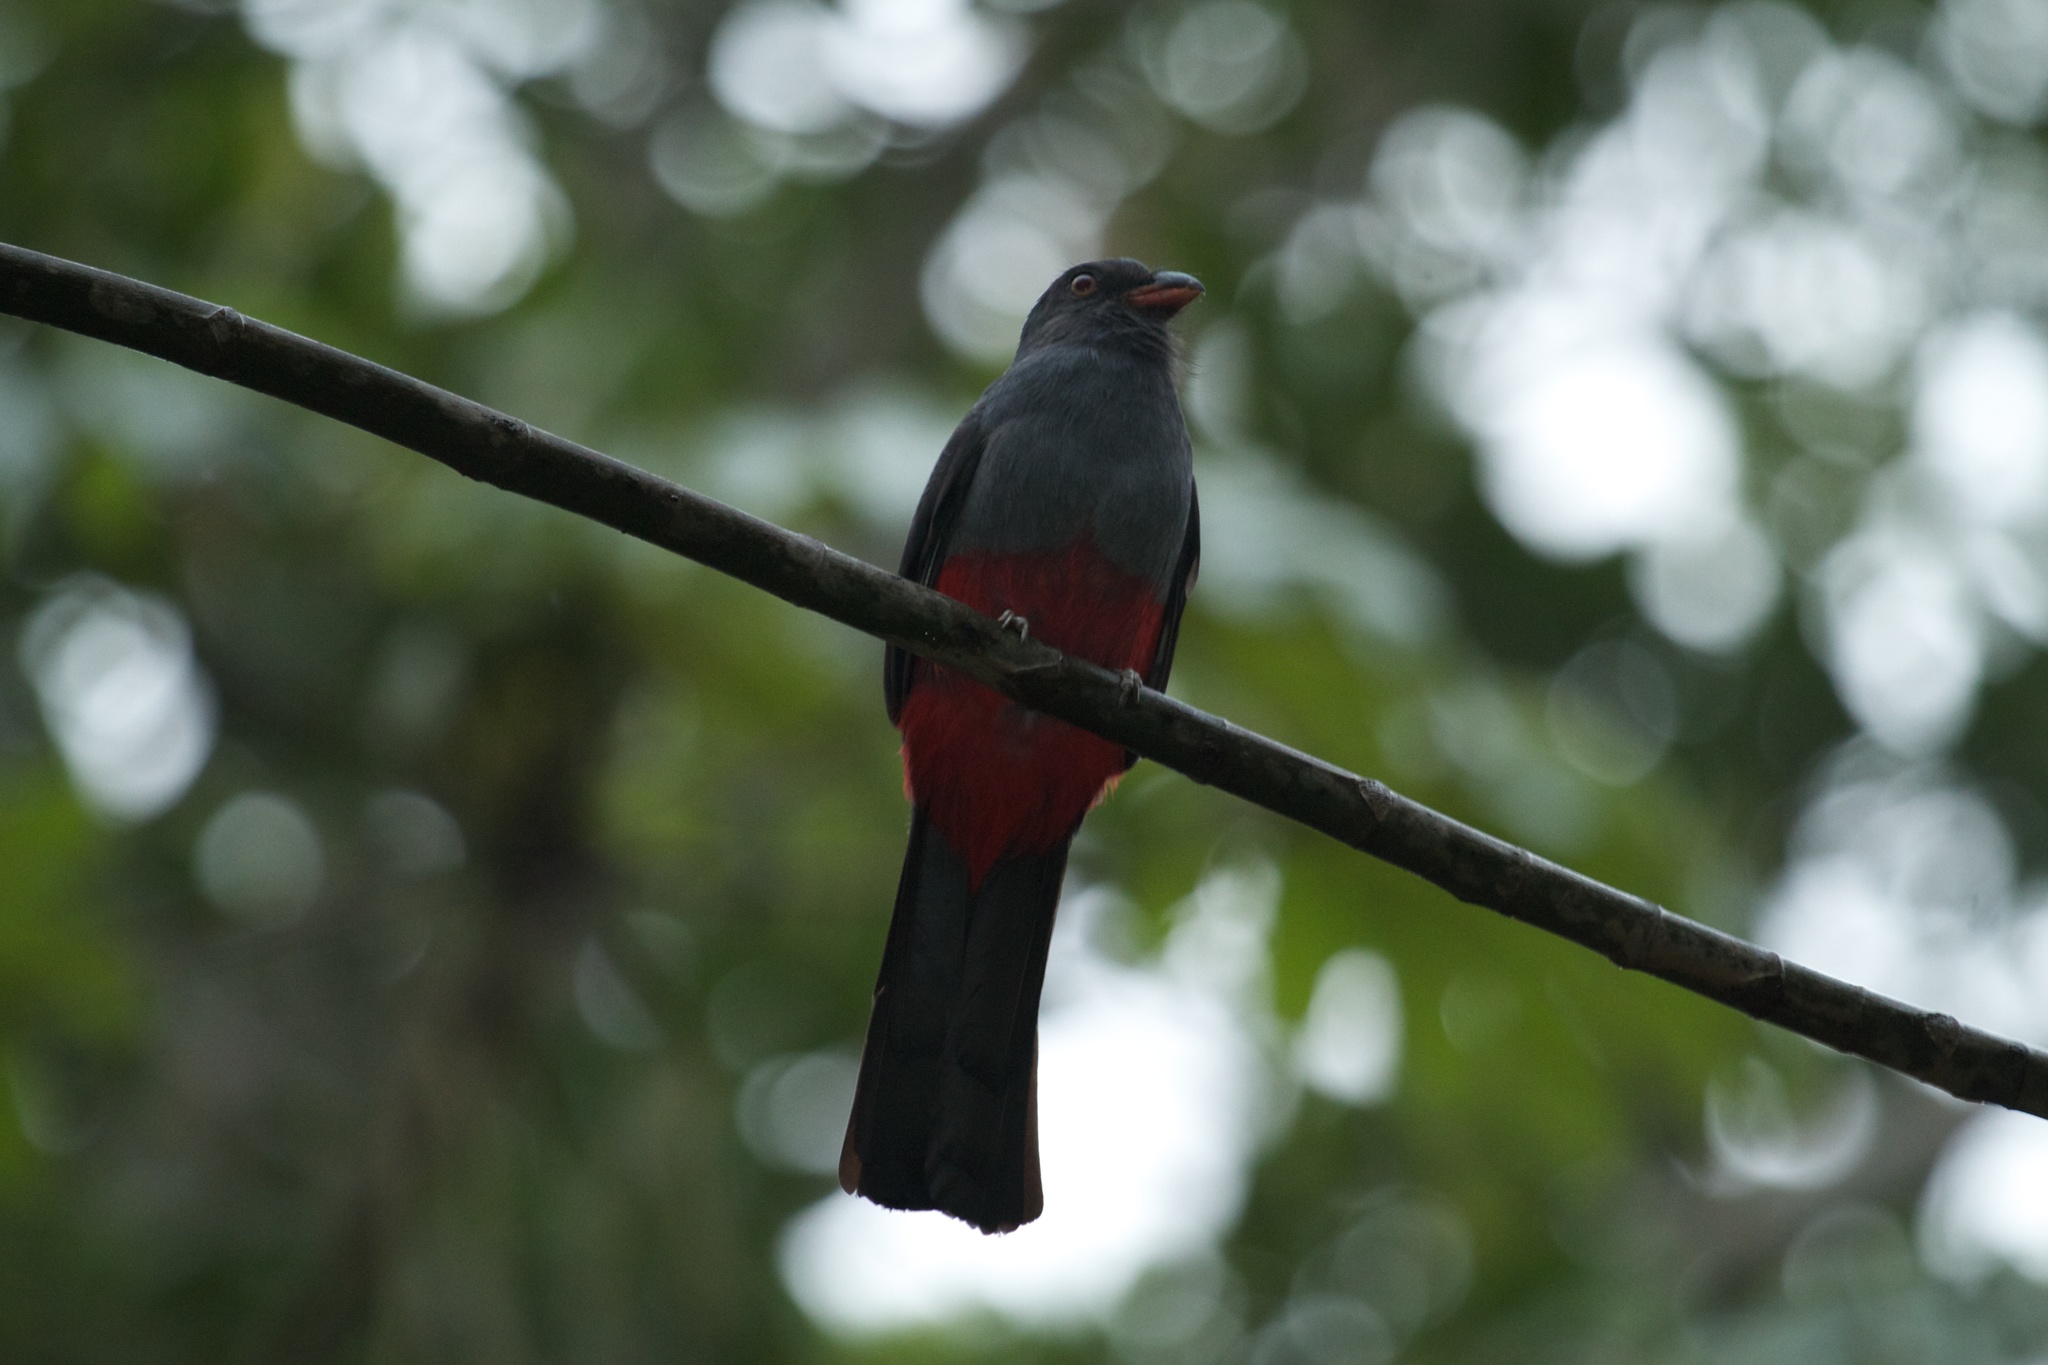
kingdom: Animalia
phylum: Chordata
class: Aves
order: Trogoniformes
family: Trogonidae
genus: Trogon
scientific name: Trogon massena
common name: Slaty-tailed trogon
